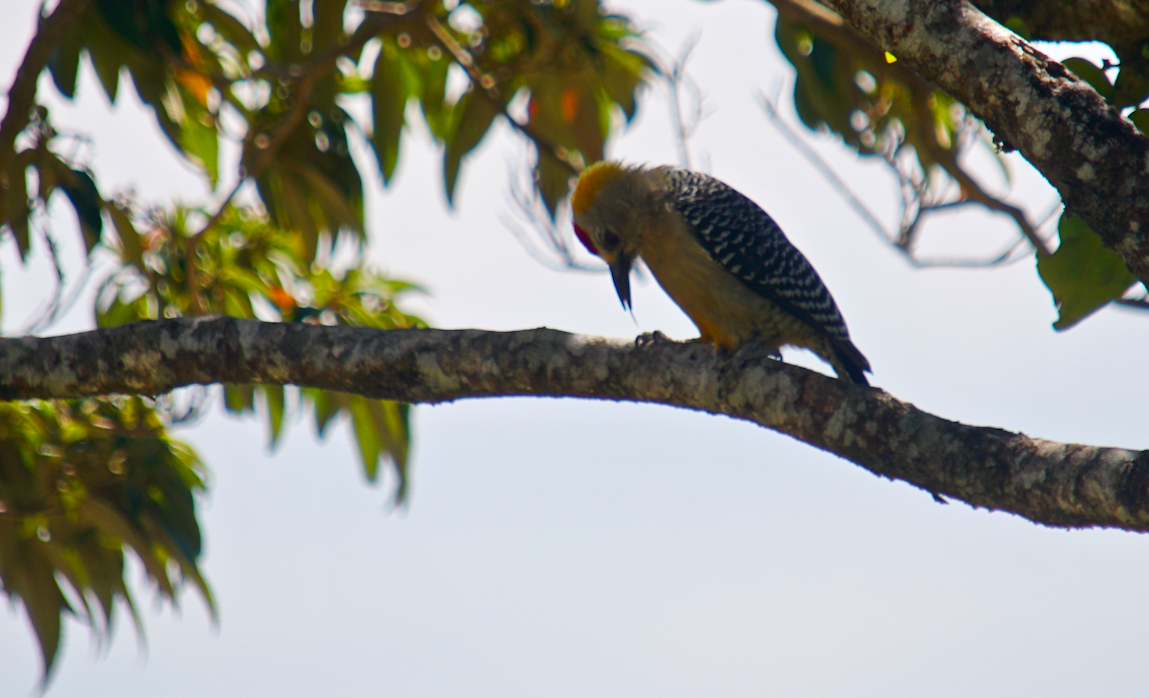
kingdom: Animalia
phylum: Chordata
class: Aves
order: Piciformes
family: Picidae
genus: Melanerpes
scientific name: Melanerpes hoffmannii
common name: Hoffmann's woodpecker
